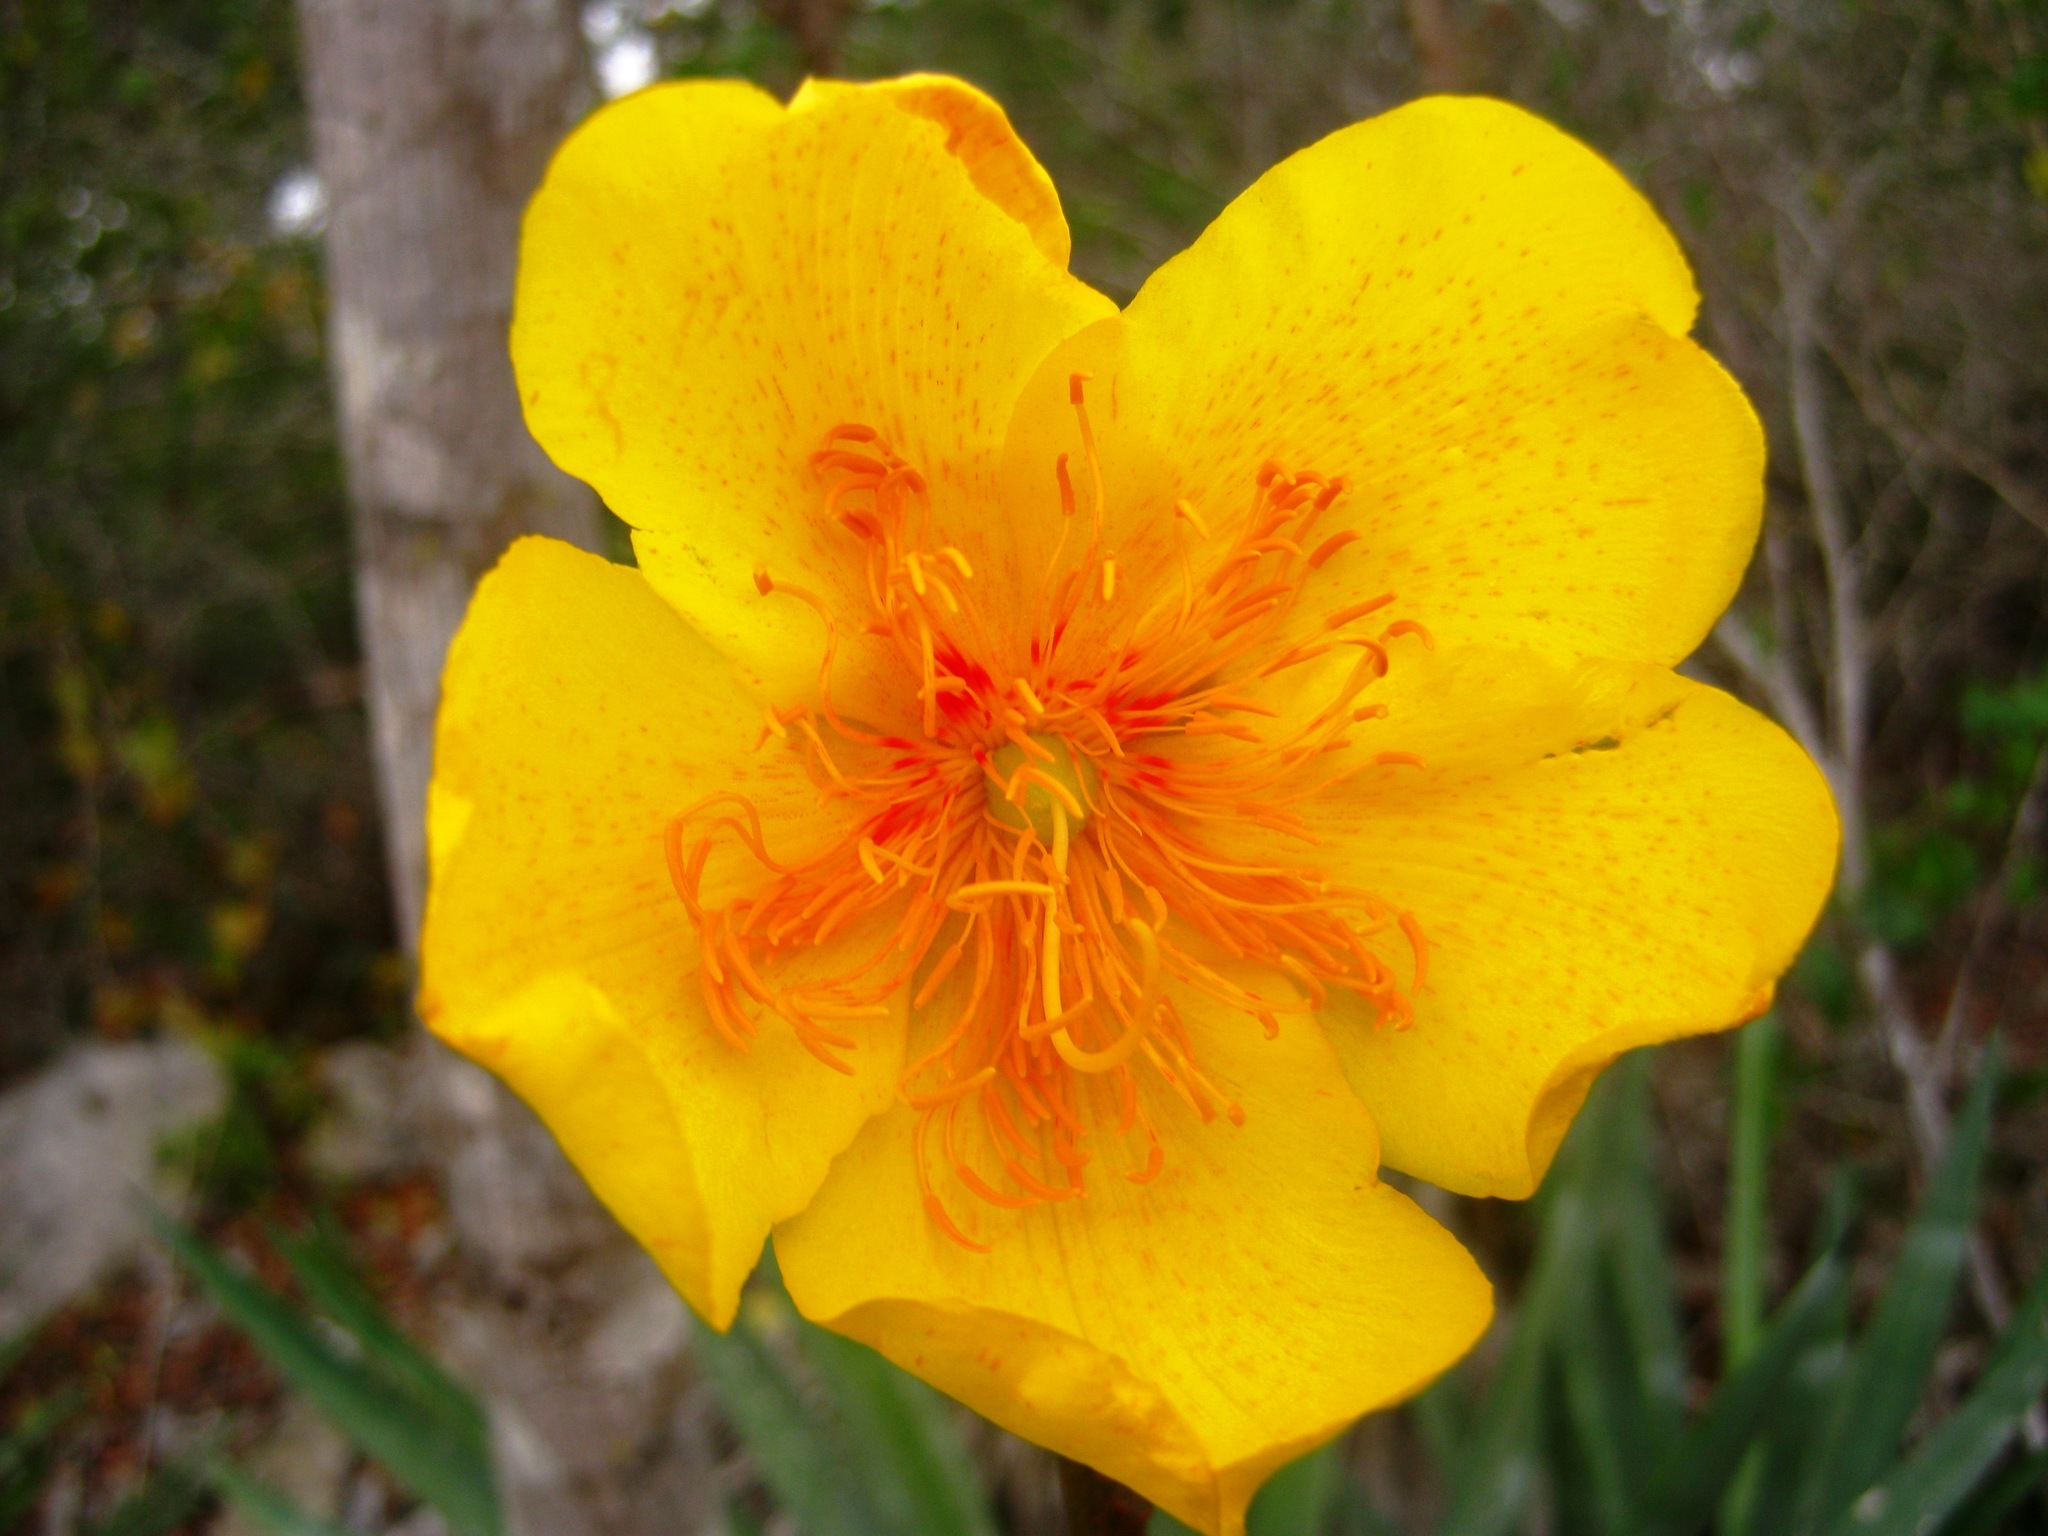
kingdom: Plantae
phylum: Tracheophyta
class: Magnoliopsida
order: Malvales
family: Cochlospermaceae
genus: Cochlospermum
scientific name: Cochlospermum vitifolium
